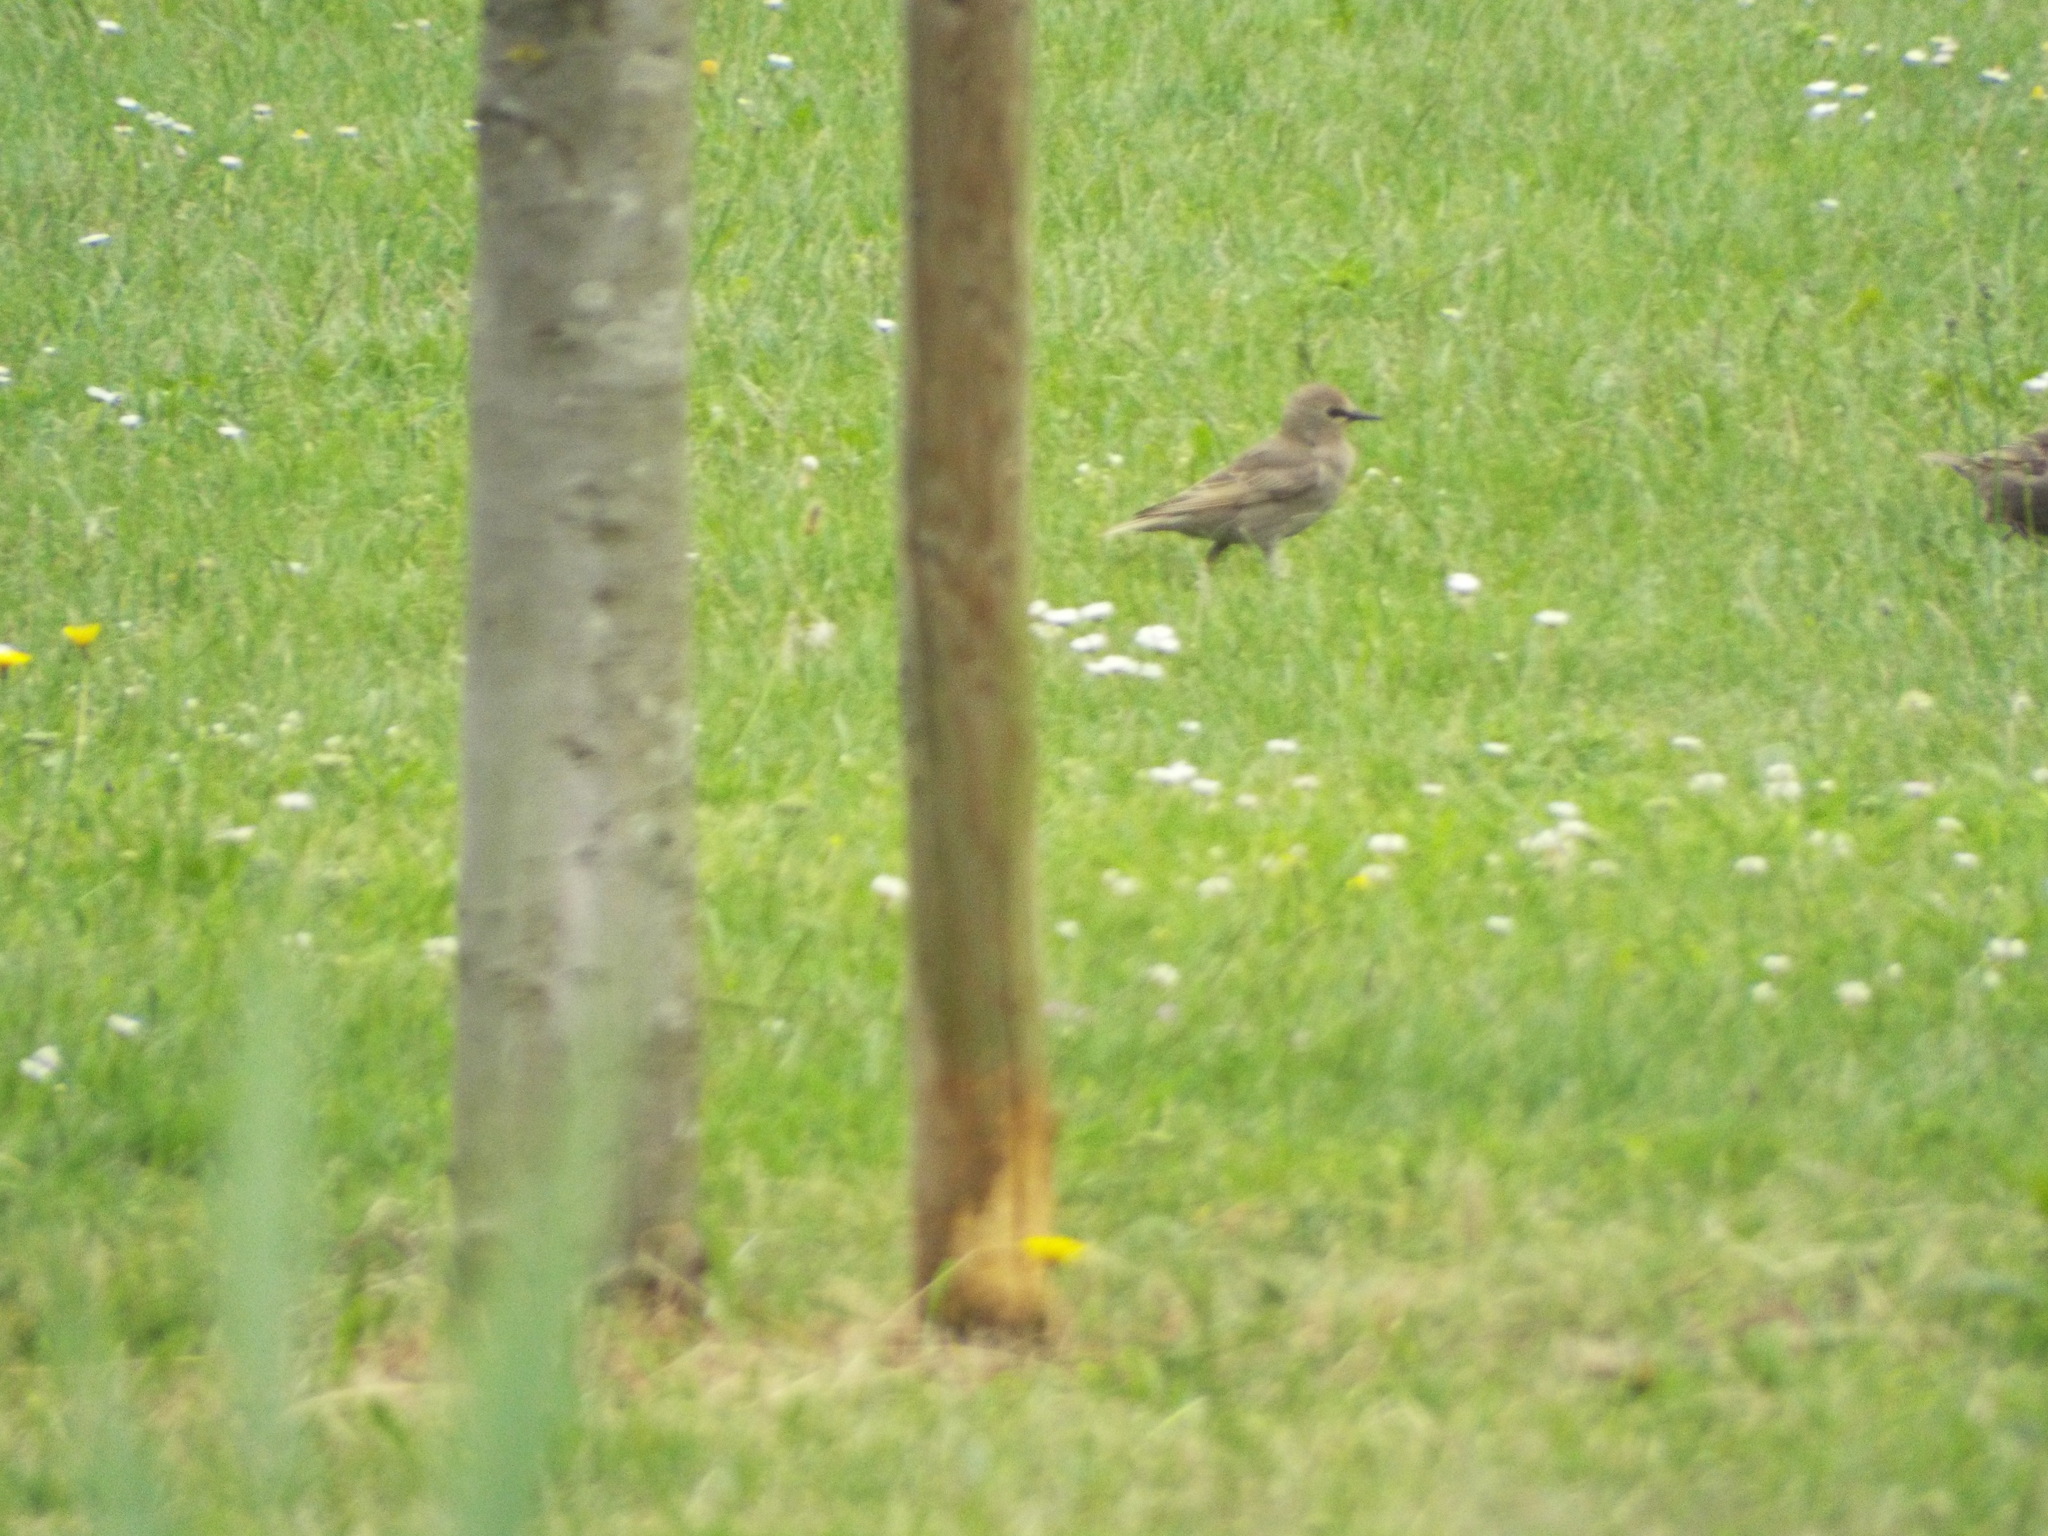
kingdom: Animalia
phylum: Chordata
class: Aves
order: Passeriformes
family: Sturnidae
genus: Sturnus
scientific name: Sturnus vulgaris
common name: Common starling
